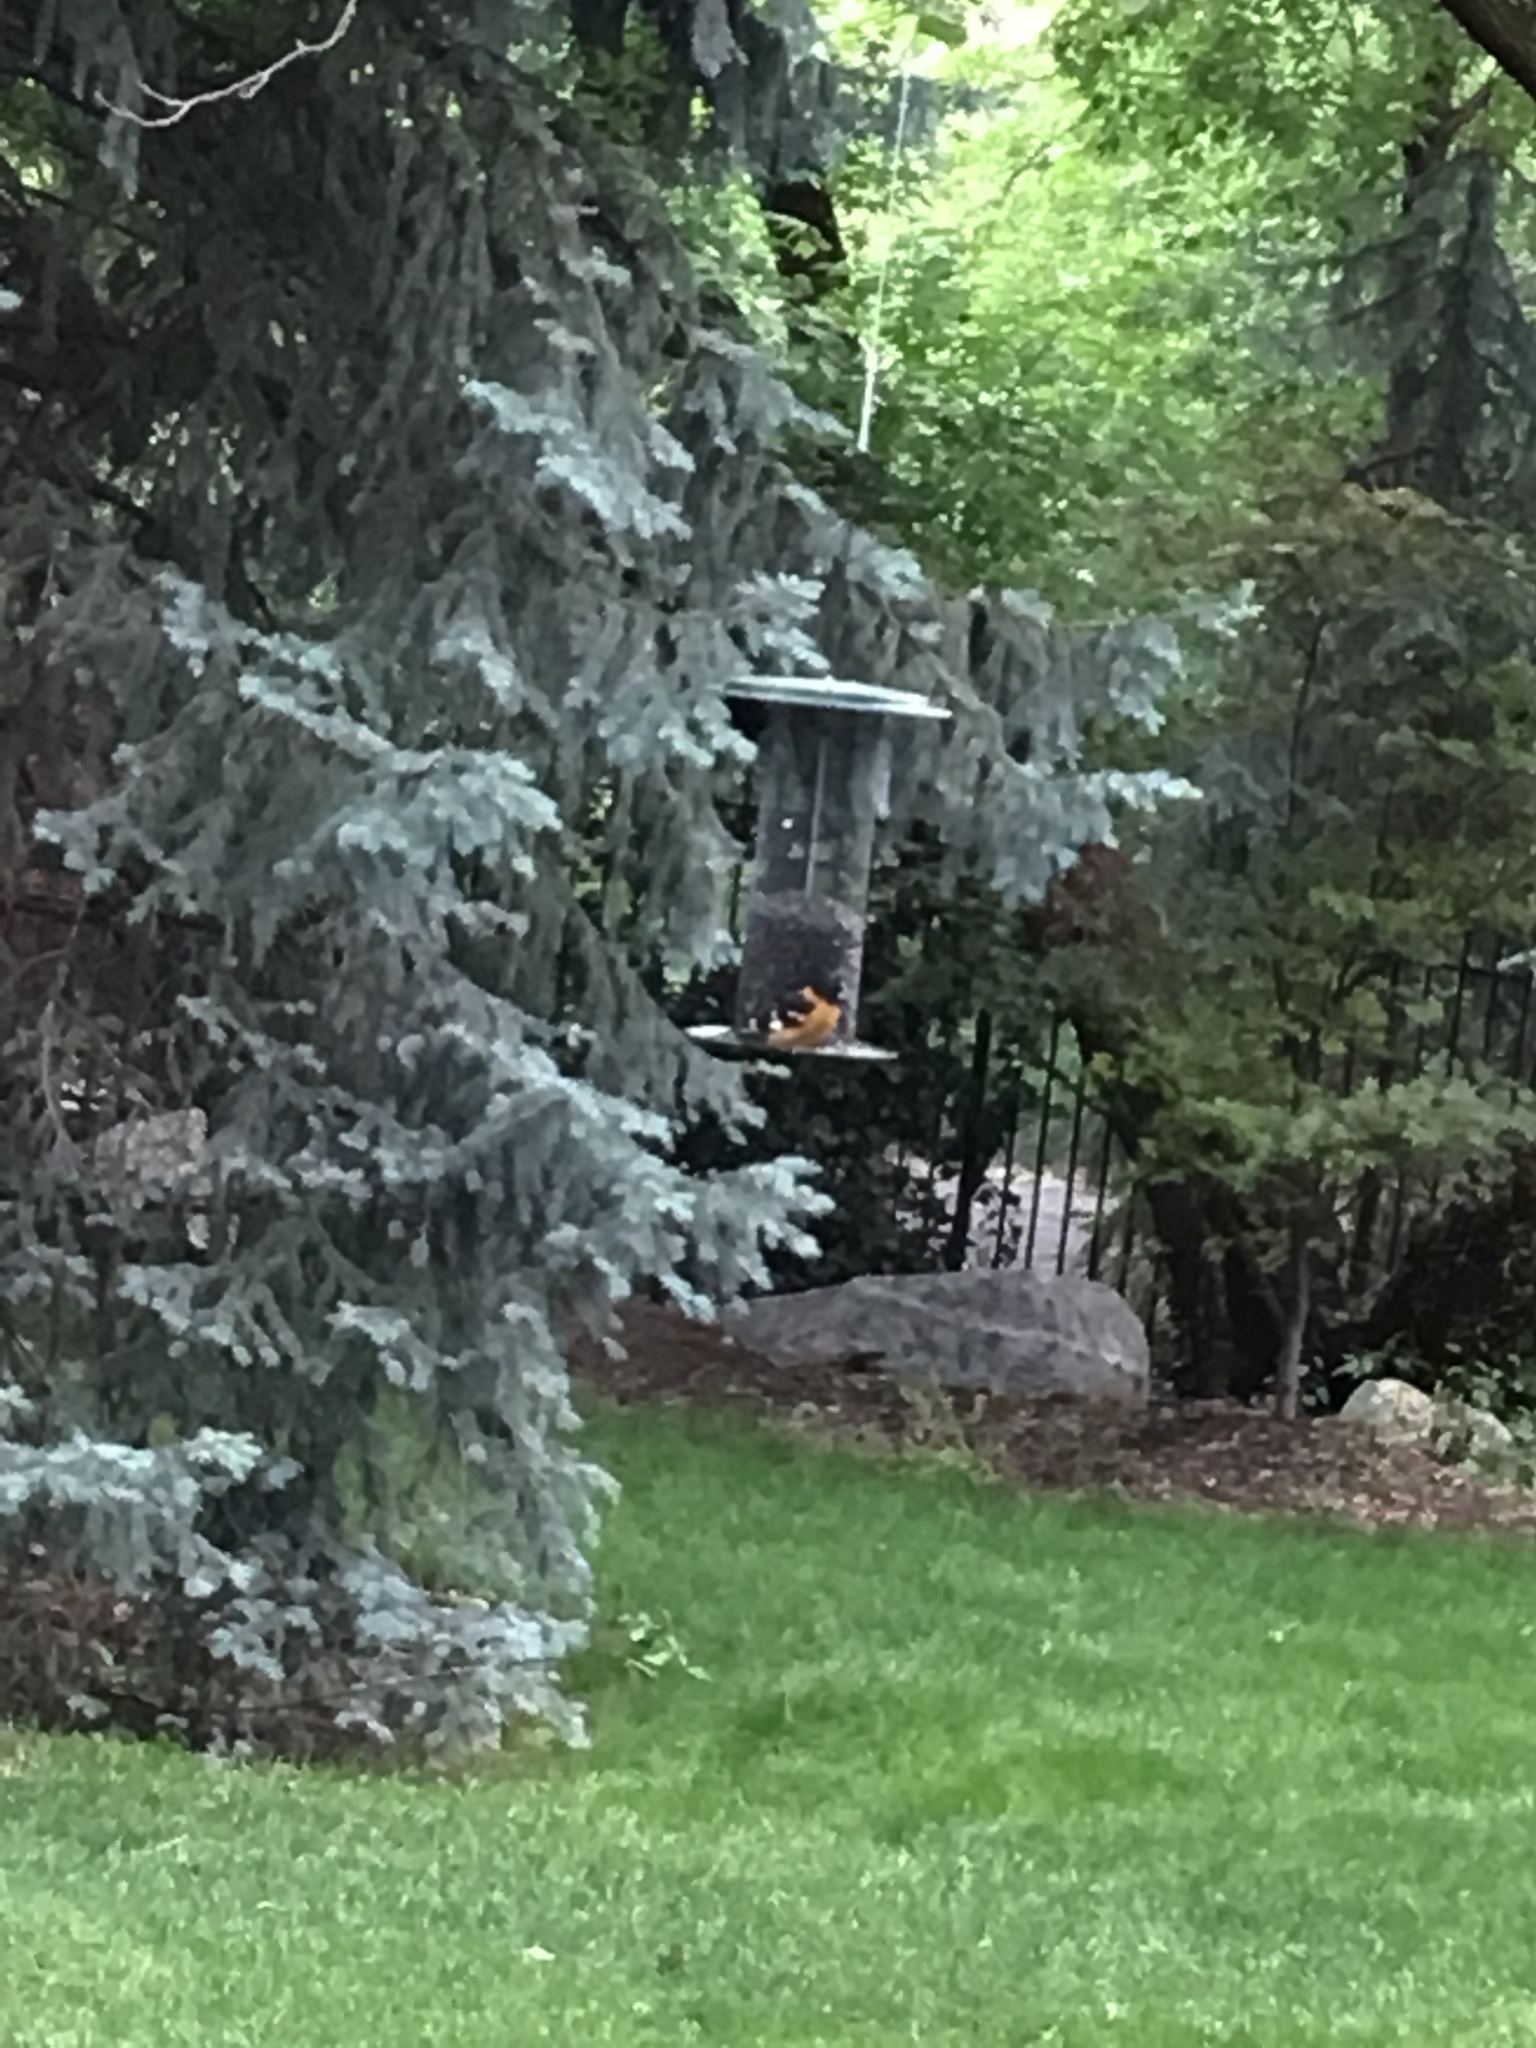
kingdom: Animalia
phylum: Chordata
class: Aves
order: Passeriformes
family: Cardinalidae
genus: Pheucticus
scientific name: Pheucticus melanocephalus
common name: Black-headed grosbeak
